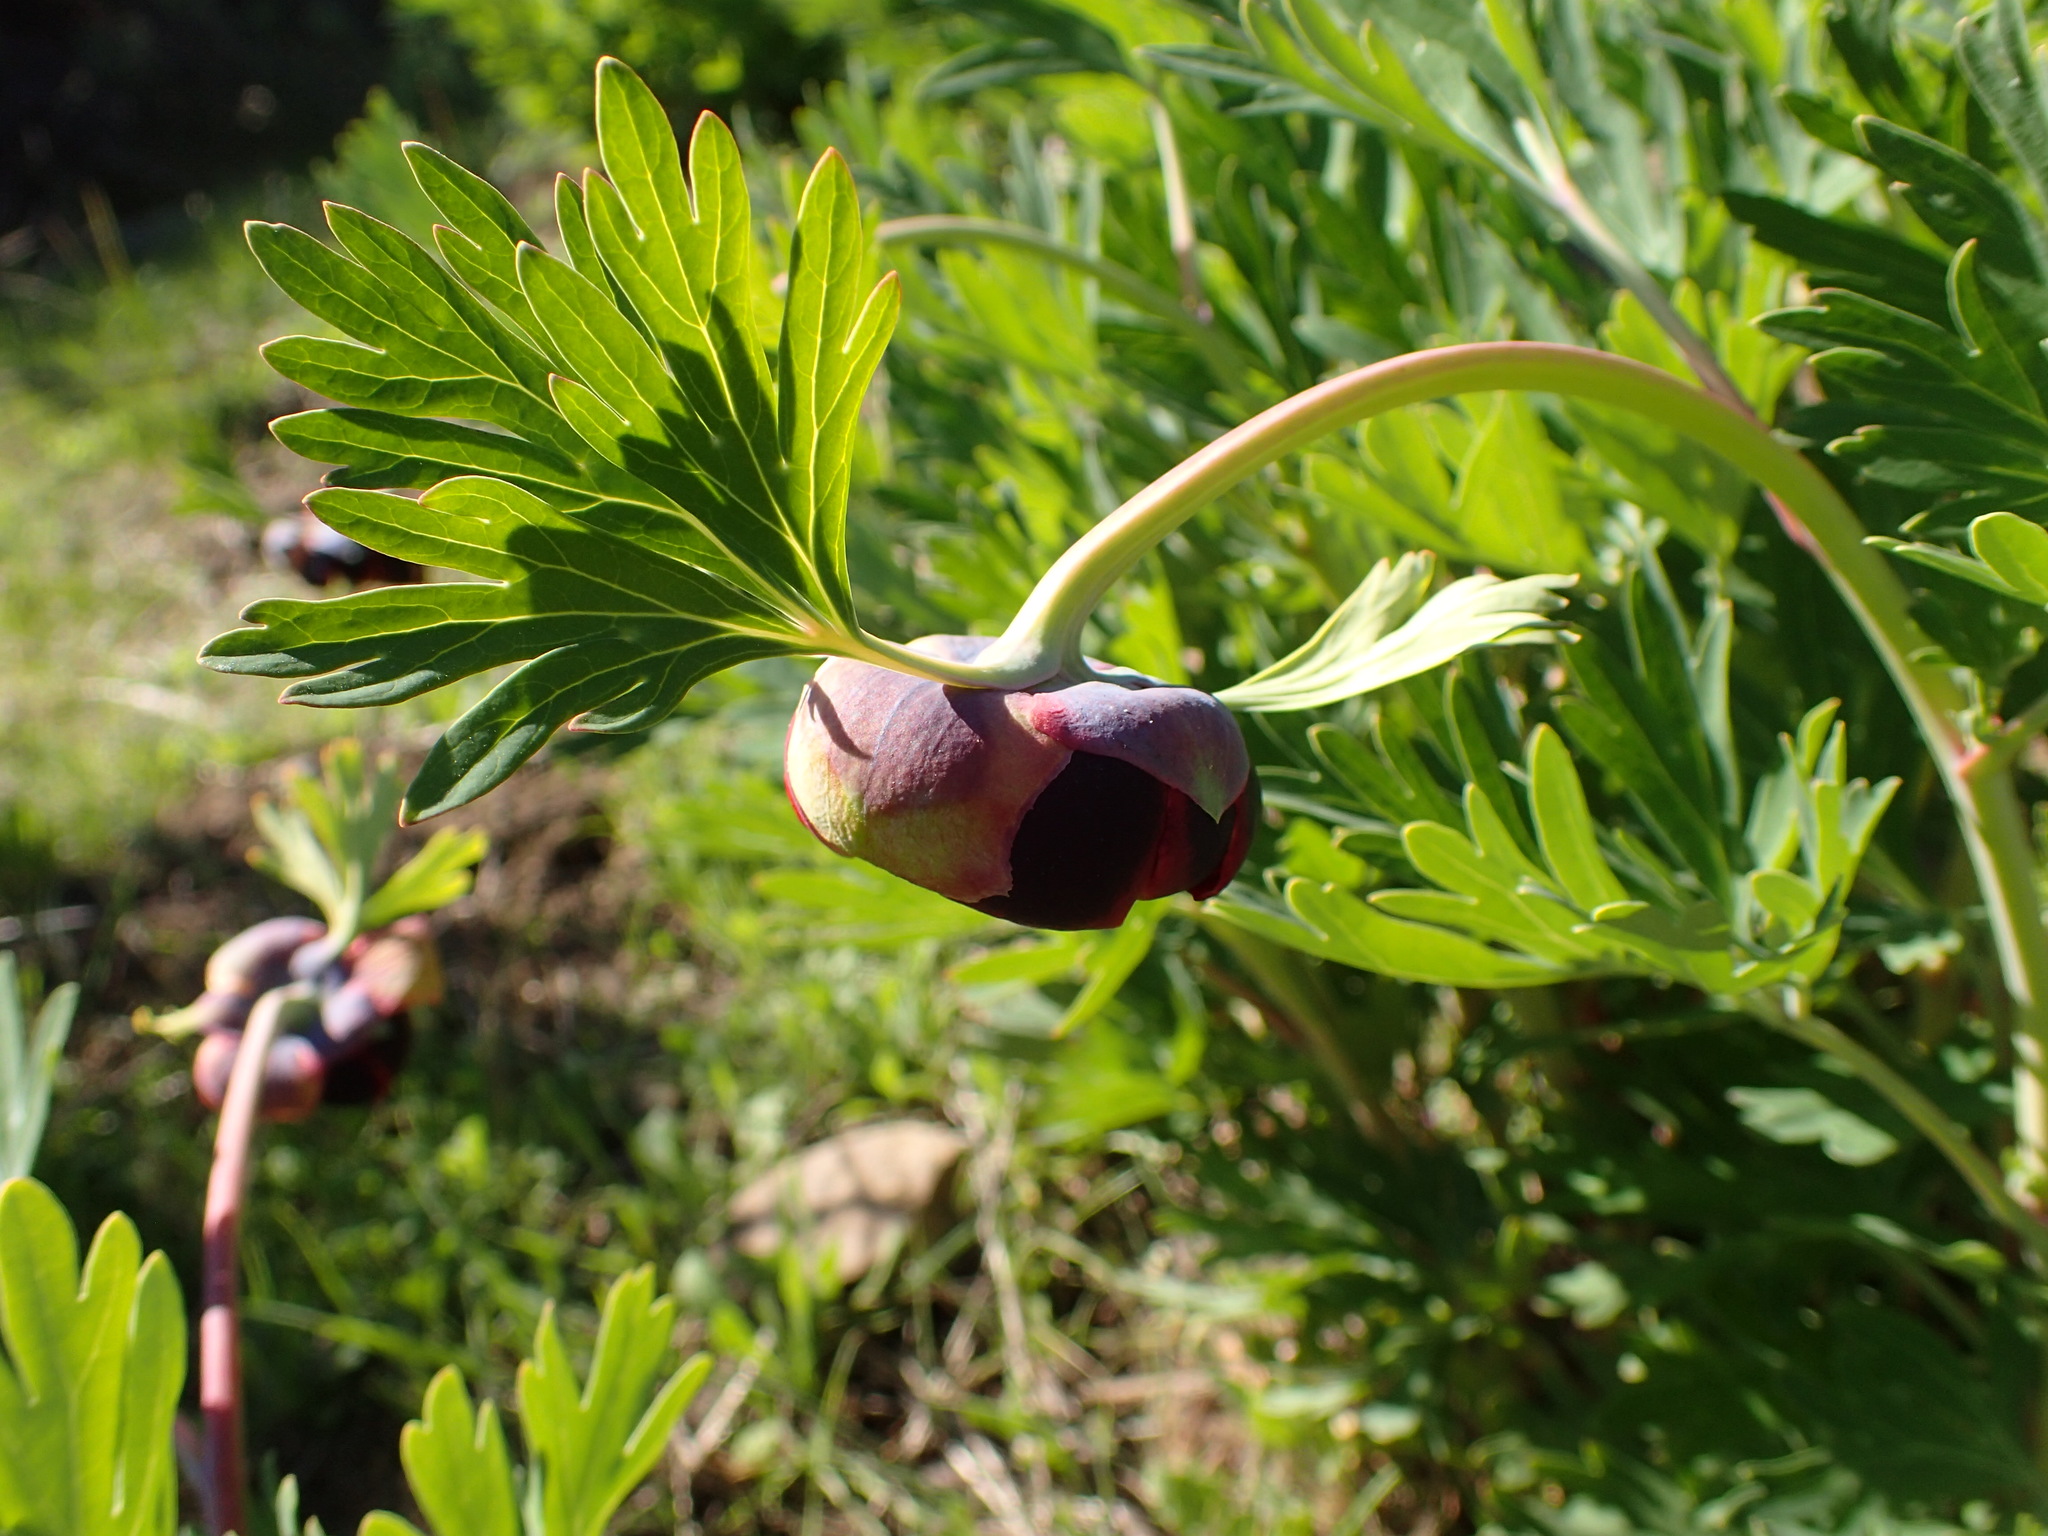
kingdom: Plantae
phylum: Tracheophyta
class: Magnoliopsida
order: Saxifragales
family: Paeoniaceae
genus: Paeonia
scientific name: Paeonia californica
